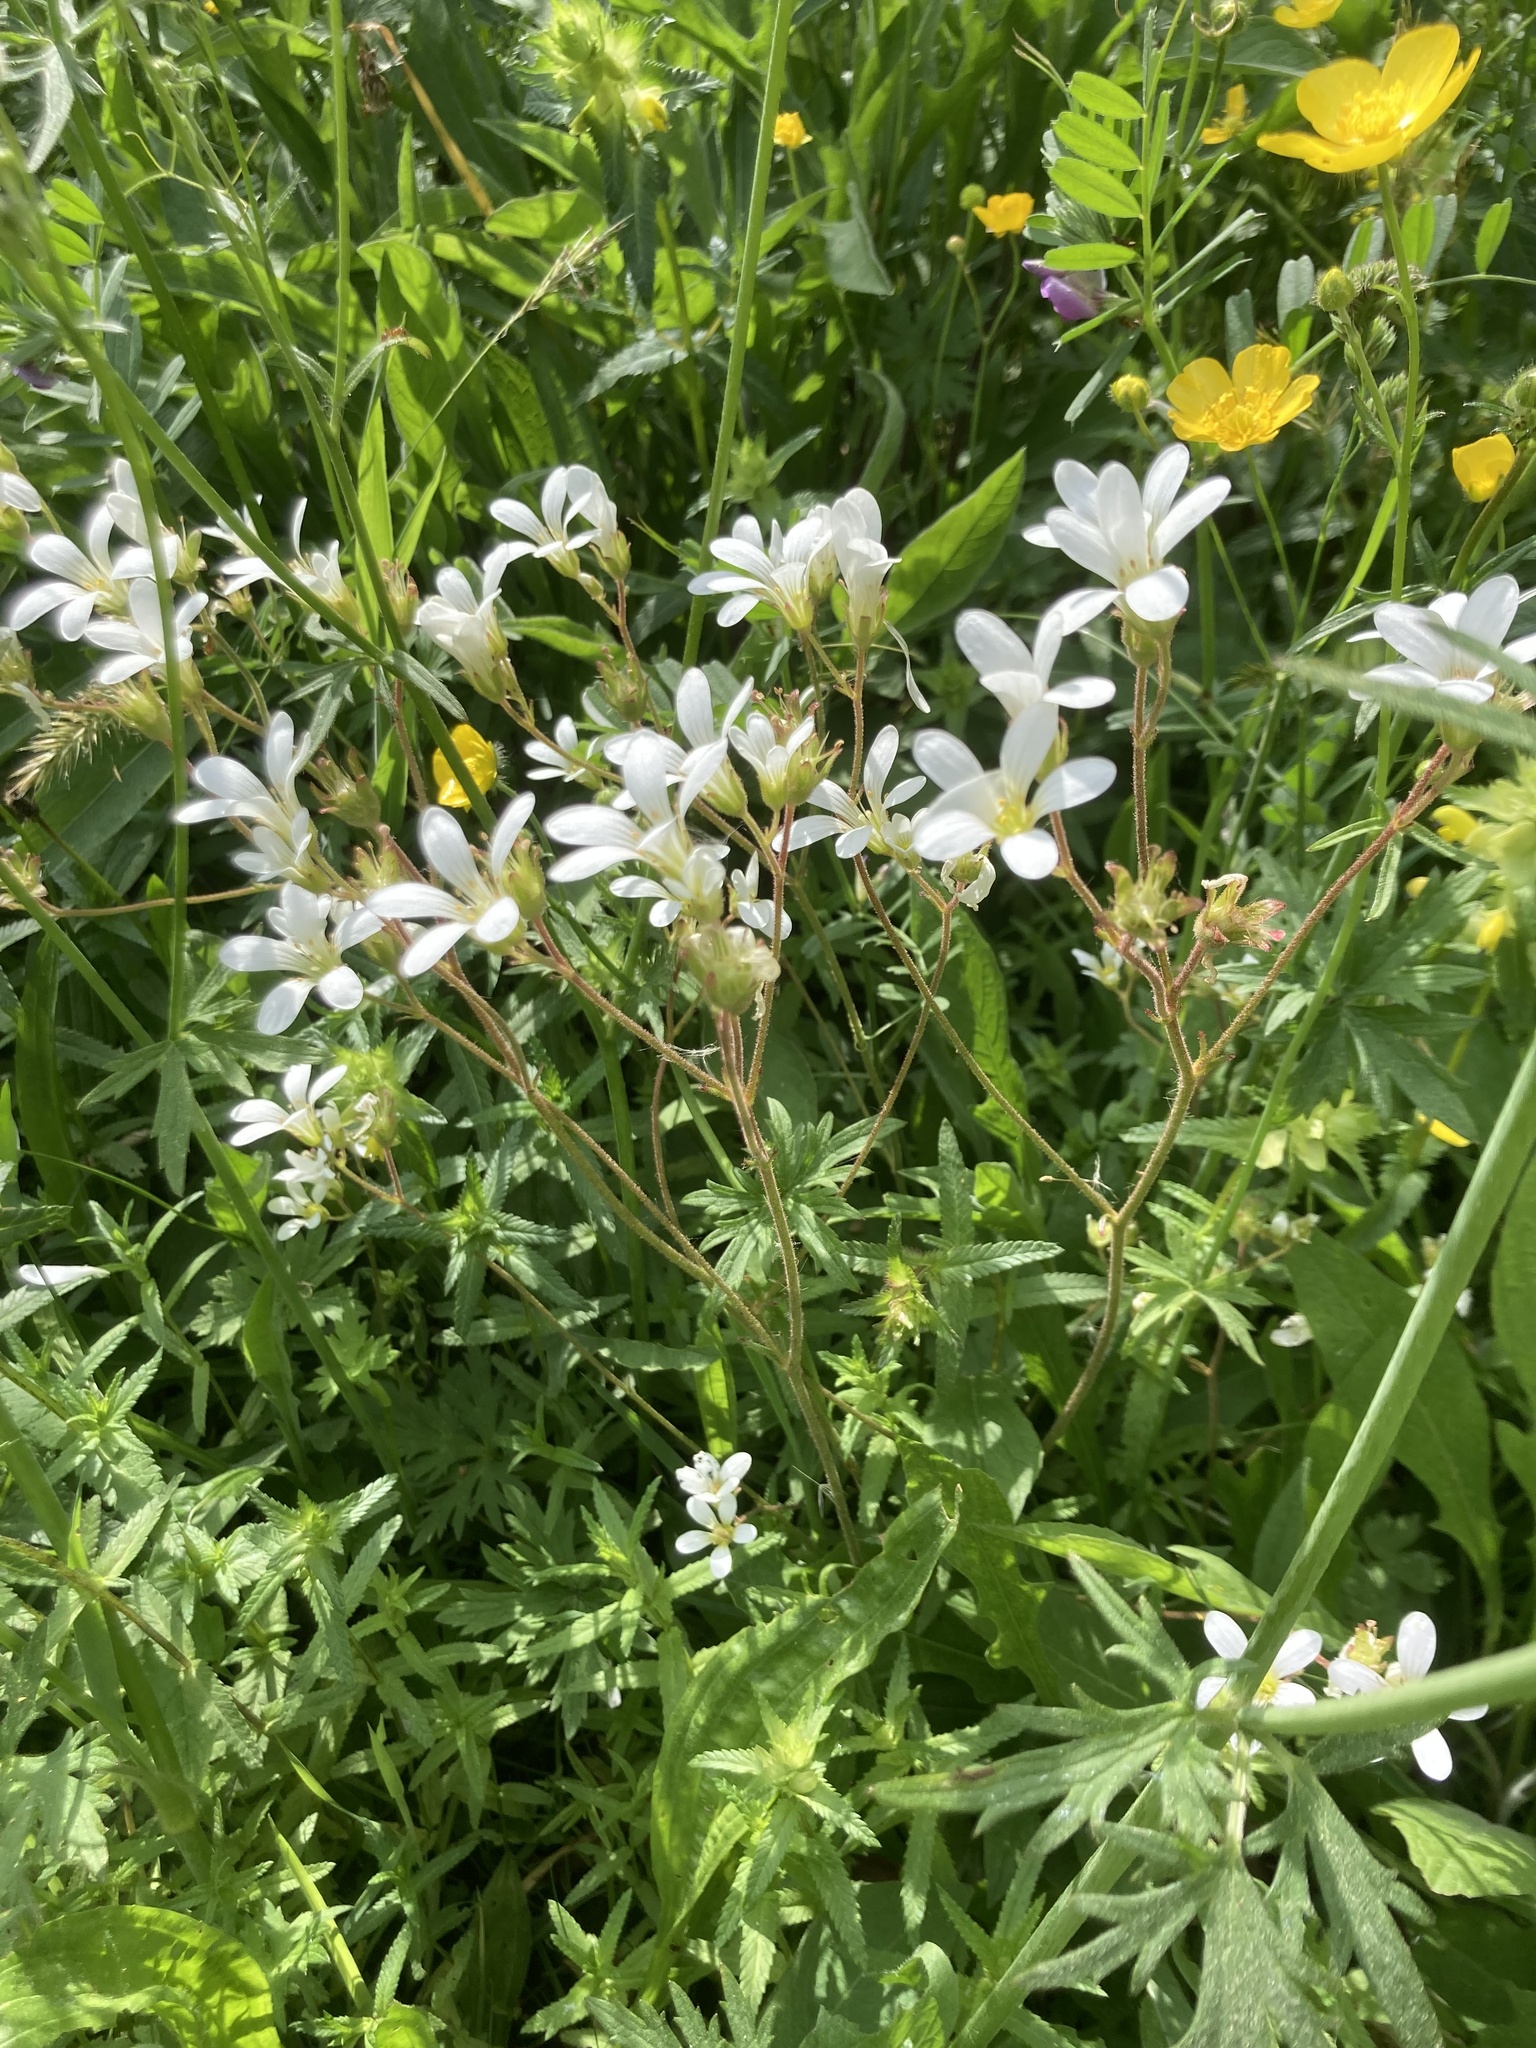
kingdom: Plantae
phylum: Tracheophyta
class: Magnoliopsida
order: Saxifragales
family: Saxifragaceae
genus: Saxifraga
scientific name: Saxifraga granulata
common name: Meadow saxifrage
